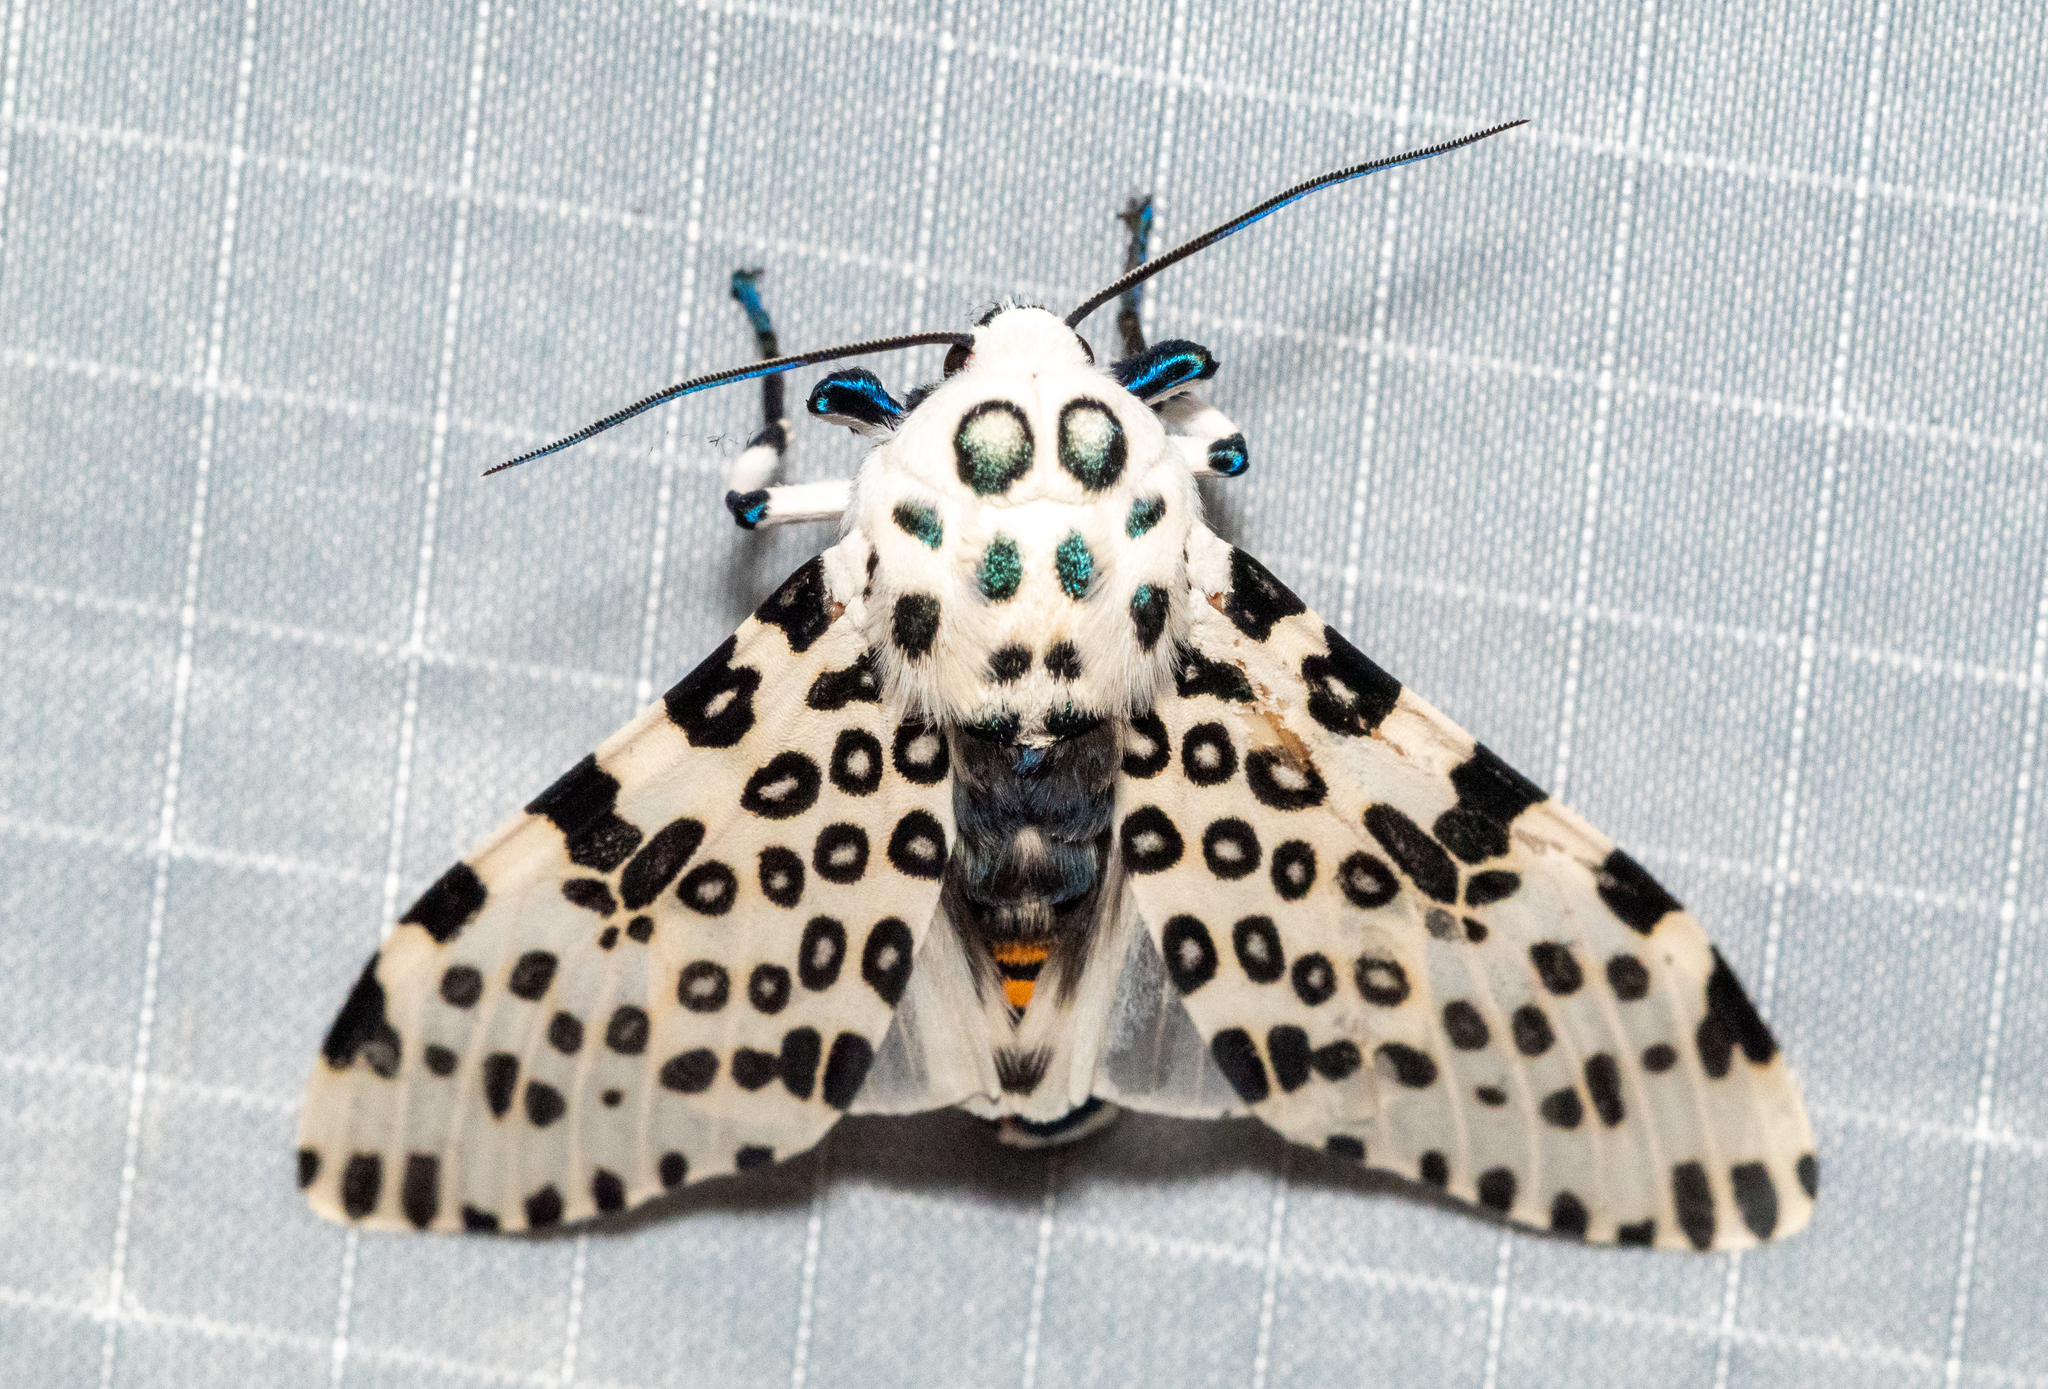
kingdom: Animalia
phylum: Arthropoda
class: Insecta
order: Lepidoptera
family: Erebidae
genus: Hypercompe
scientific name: Hypercompe scribonia
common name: Giant leopard moth
